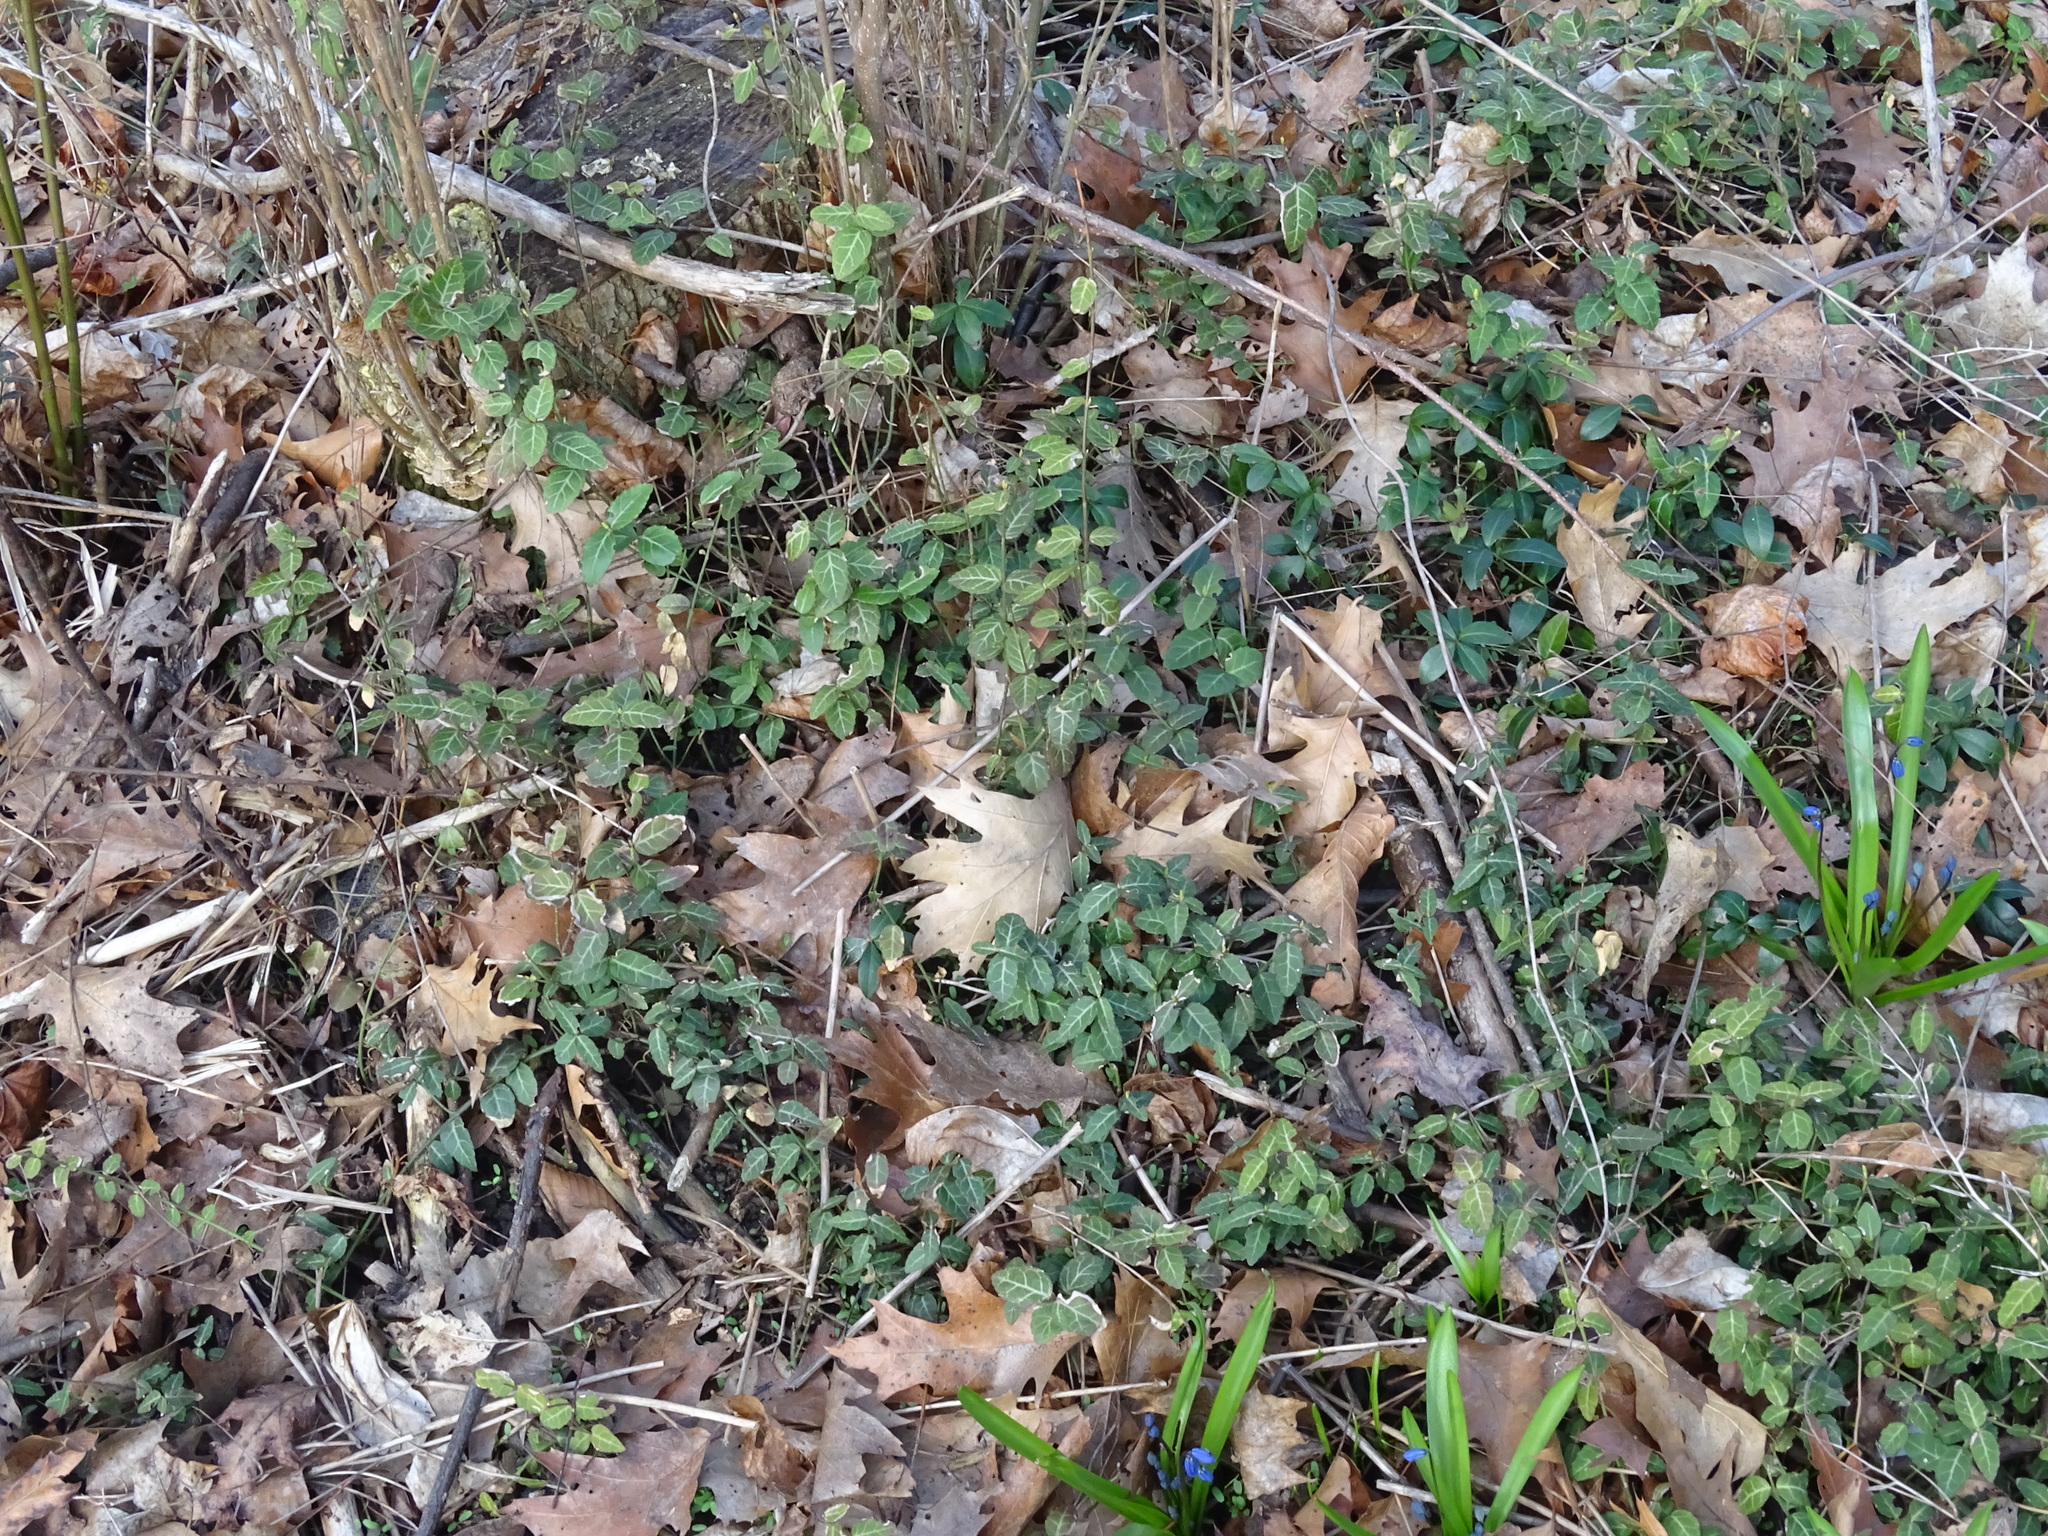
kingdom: Plantae
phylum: Tracheophyta
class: Magnoliopsida
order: Celastrales
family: Celastraceae
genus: Euonymus
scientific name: Euonymus fortunei
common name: Climbing euonymus
